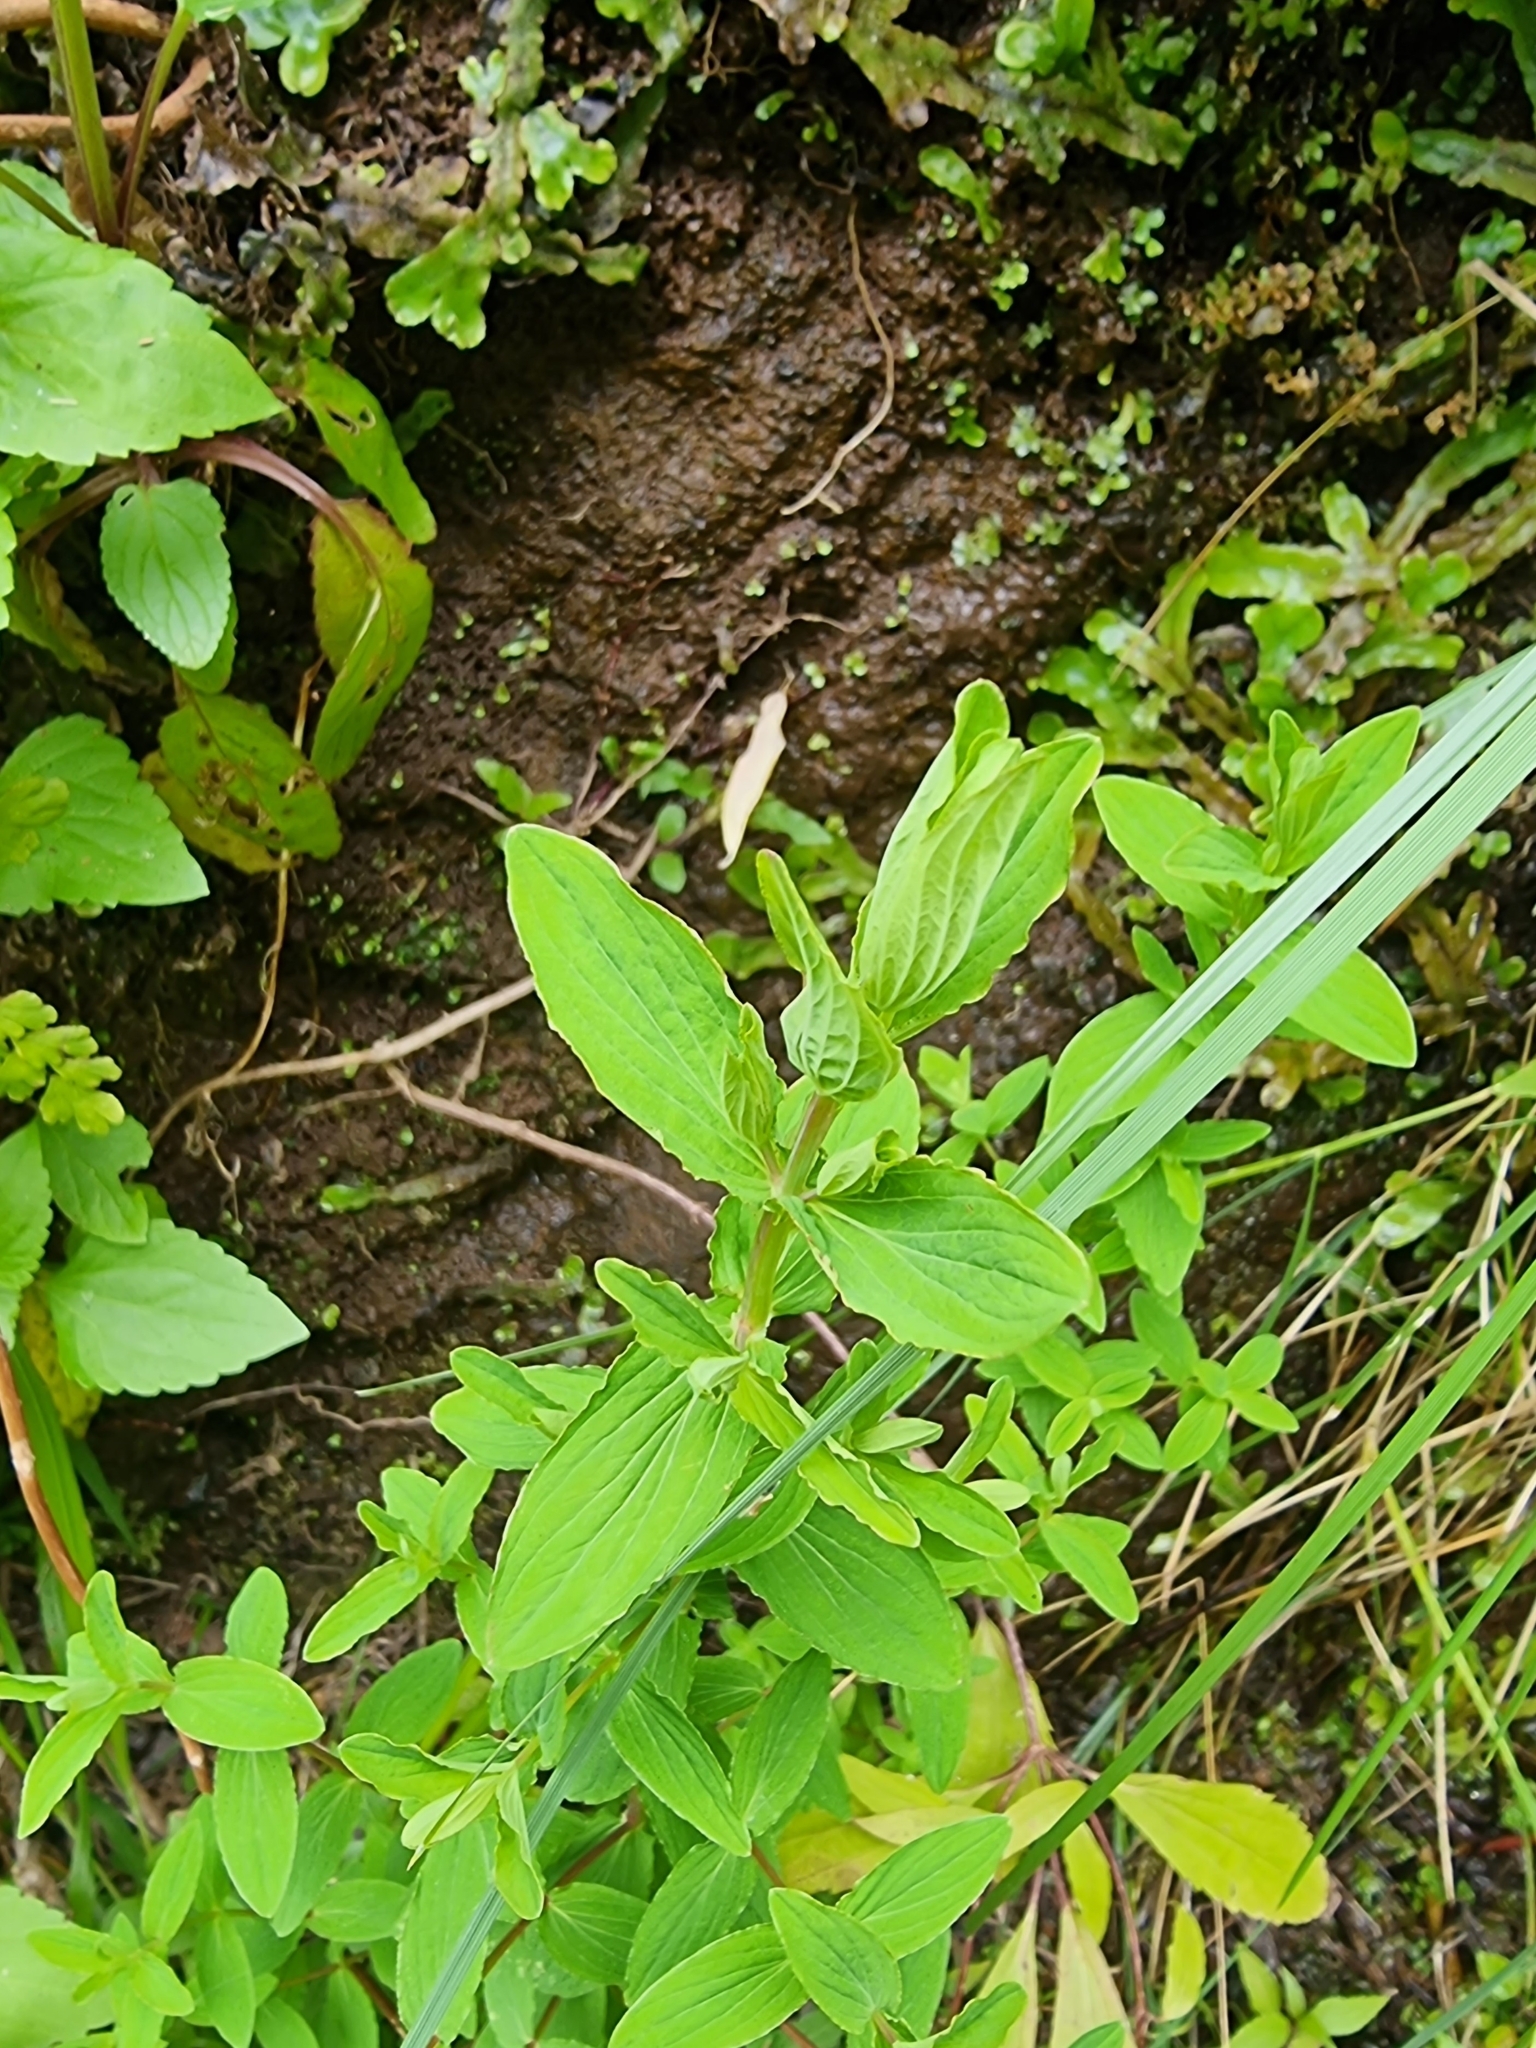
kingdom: Plantae
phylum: Tracheophyta
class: Magnoliopsida
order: Malpighiales
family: Hypericaceae
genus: Hypericum
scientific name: Hypericum undulatum
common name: Wavy st. john's-wort
